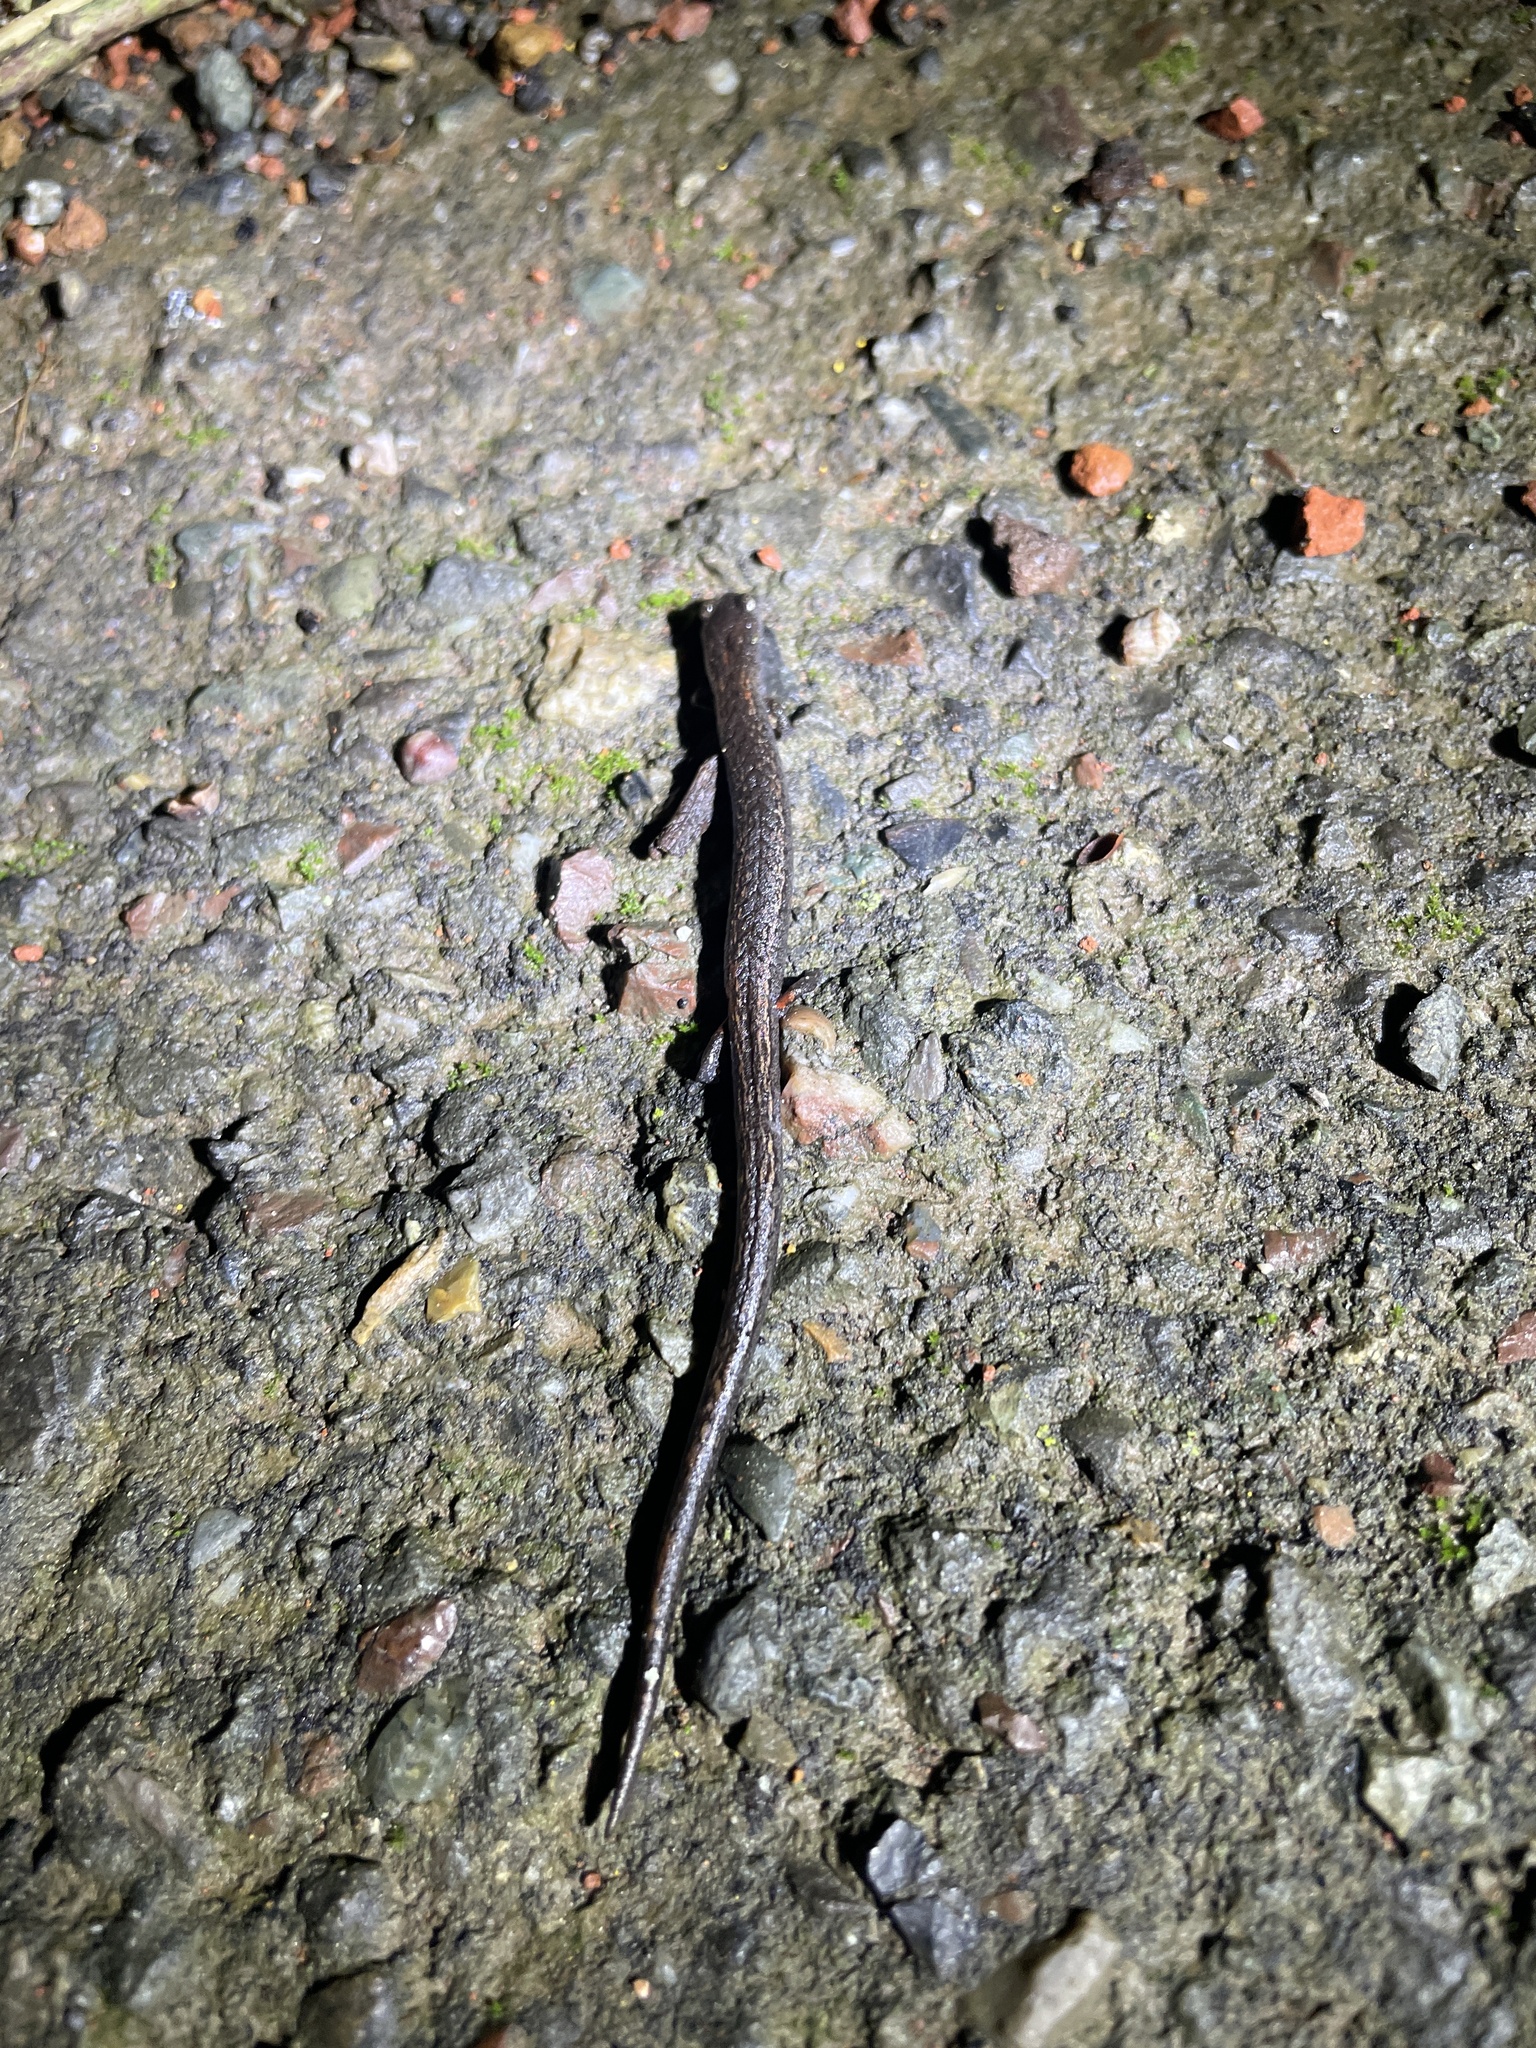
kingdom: Animalia
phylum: Chordata
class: Amphibia
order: Caudata
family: Plethodontidae
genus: Batrachoseps
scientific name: Batrachoseps attenuatus
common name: California slender salamander
